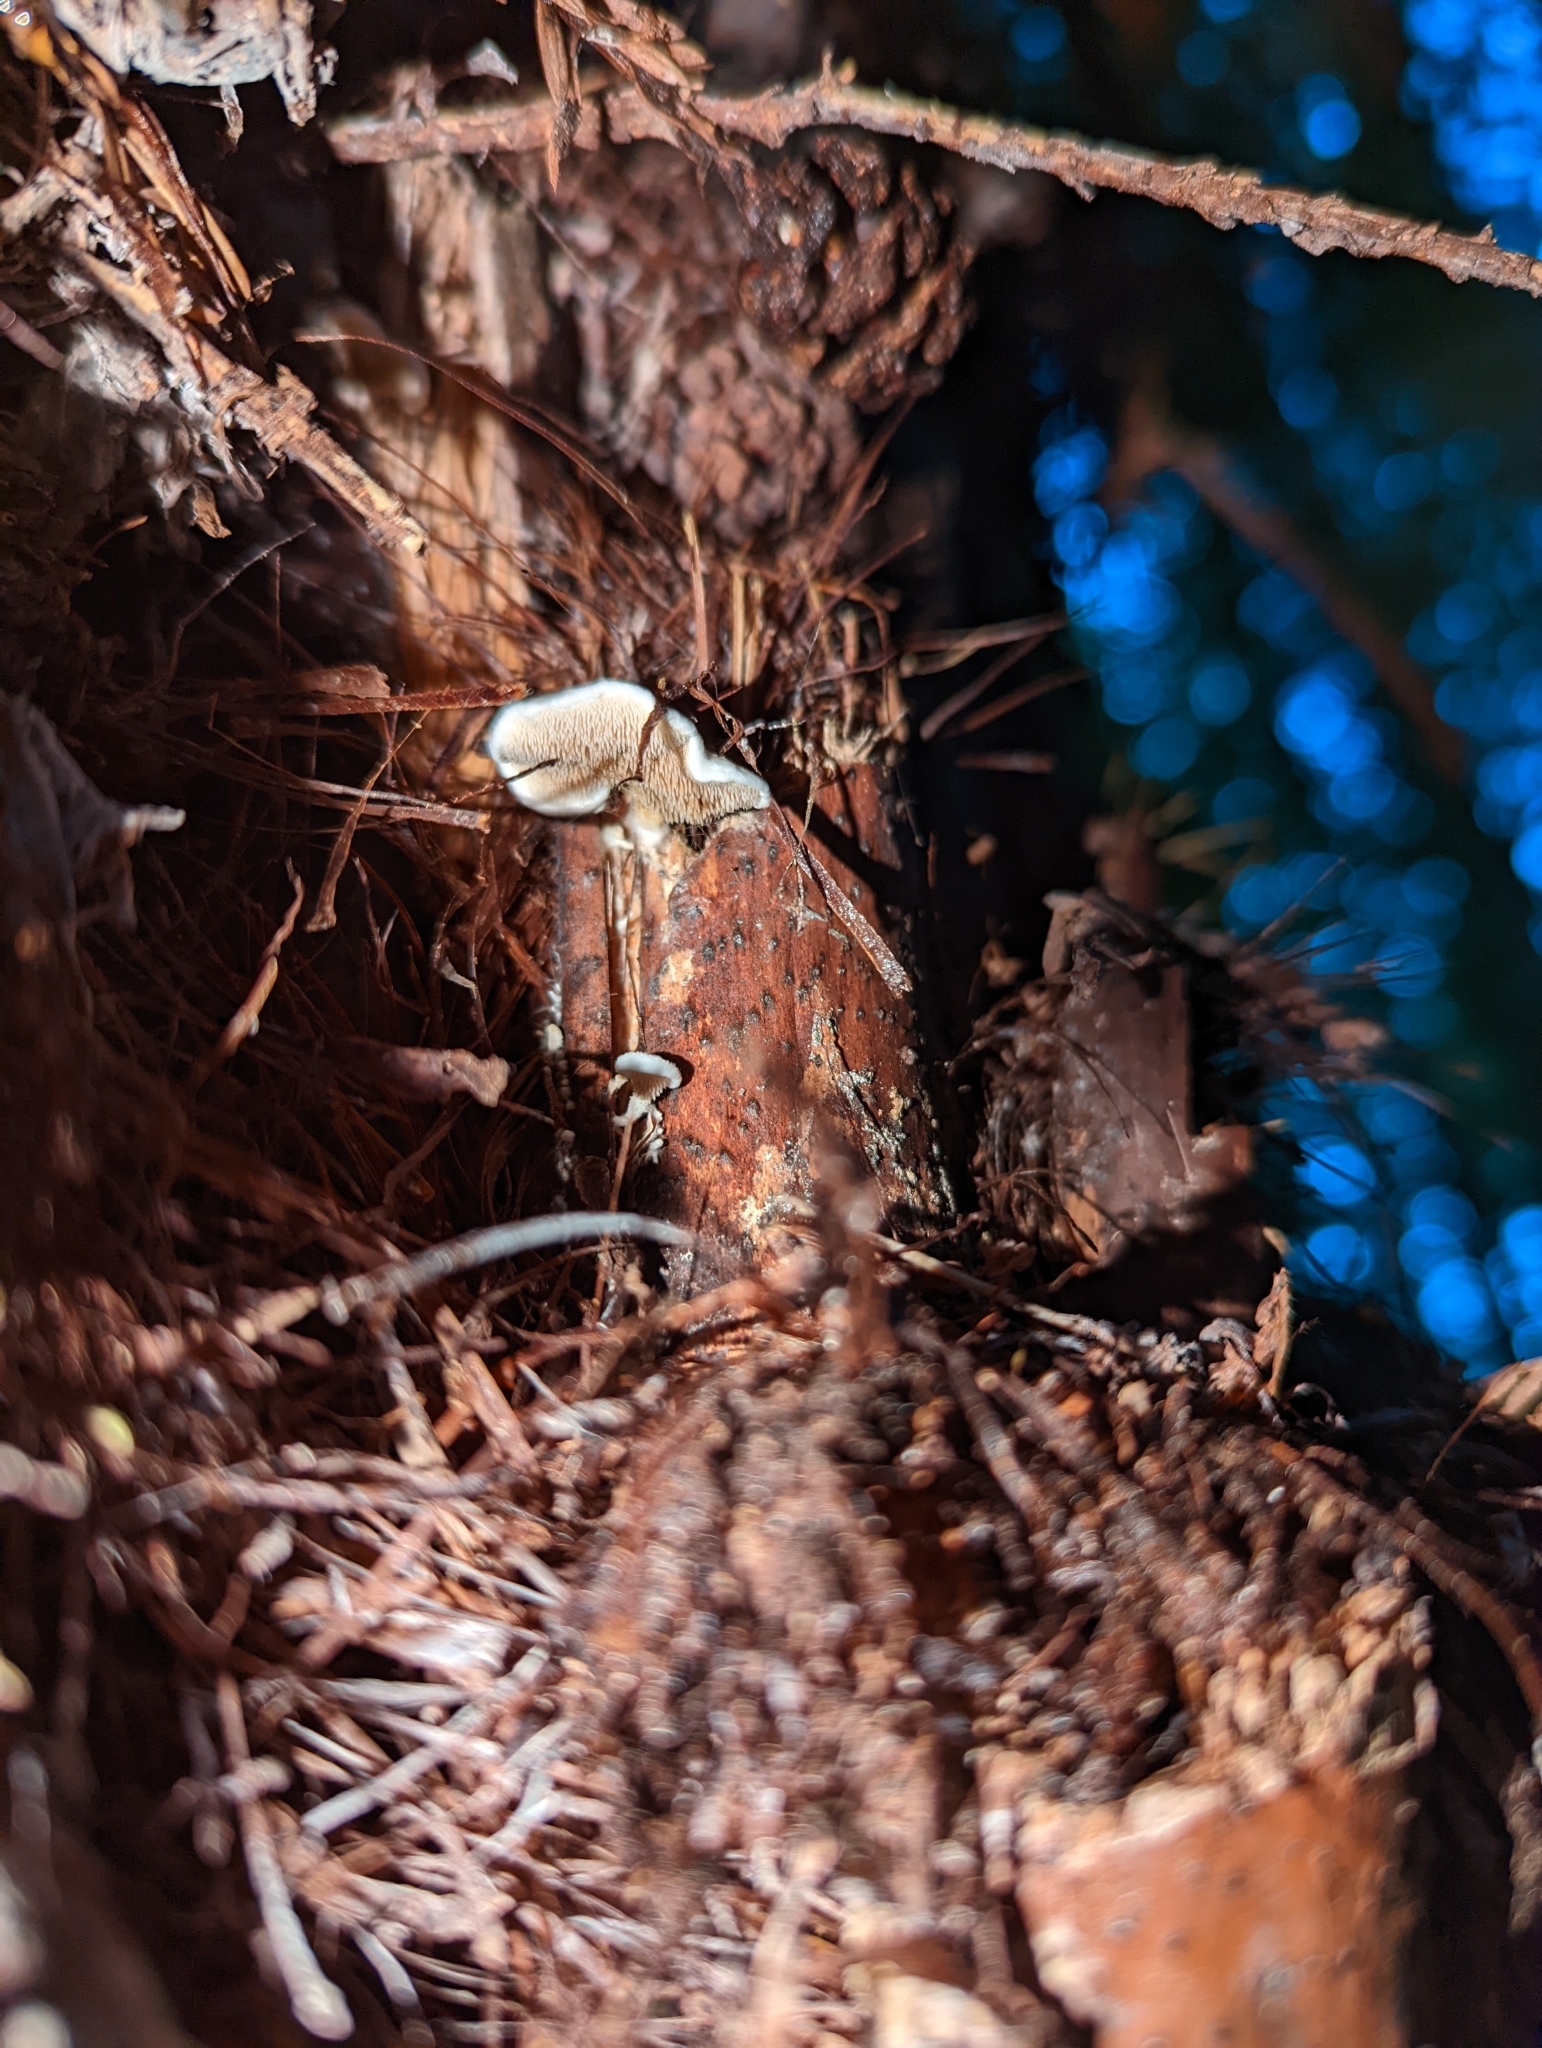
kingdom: Fungi
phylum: Basidiomycota
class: Agaricomycetes
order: Gomphales
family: Clavariadelphaceae
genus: Beenakia
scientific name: Beenakia dacostae
